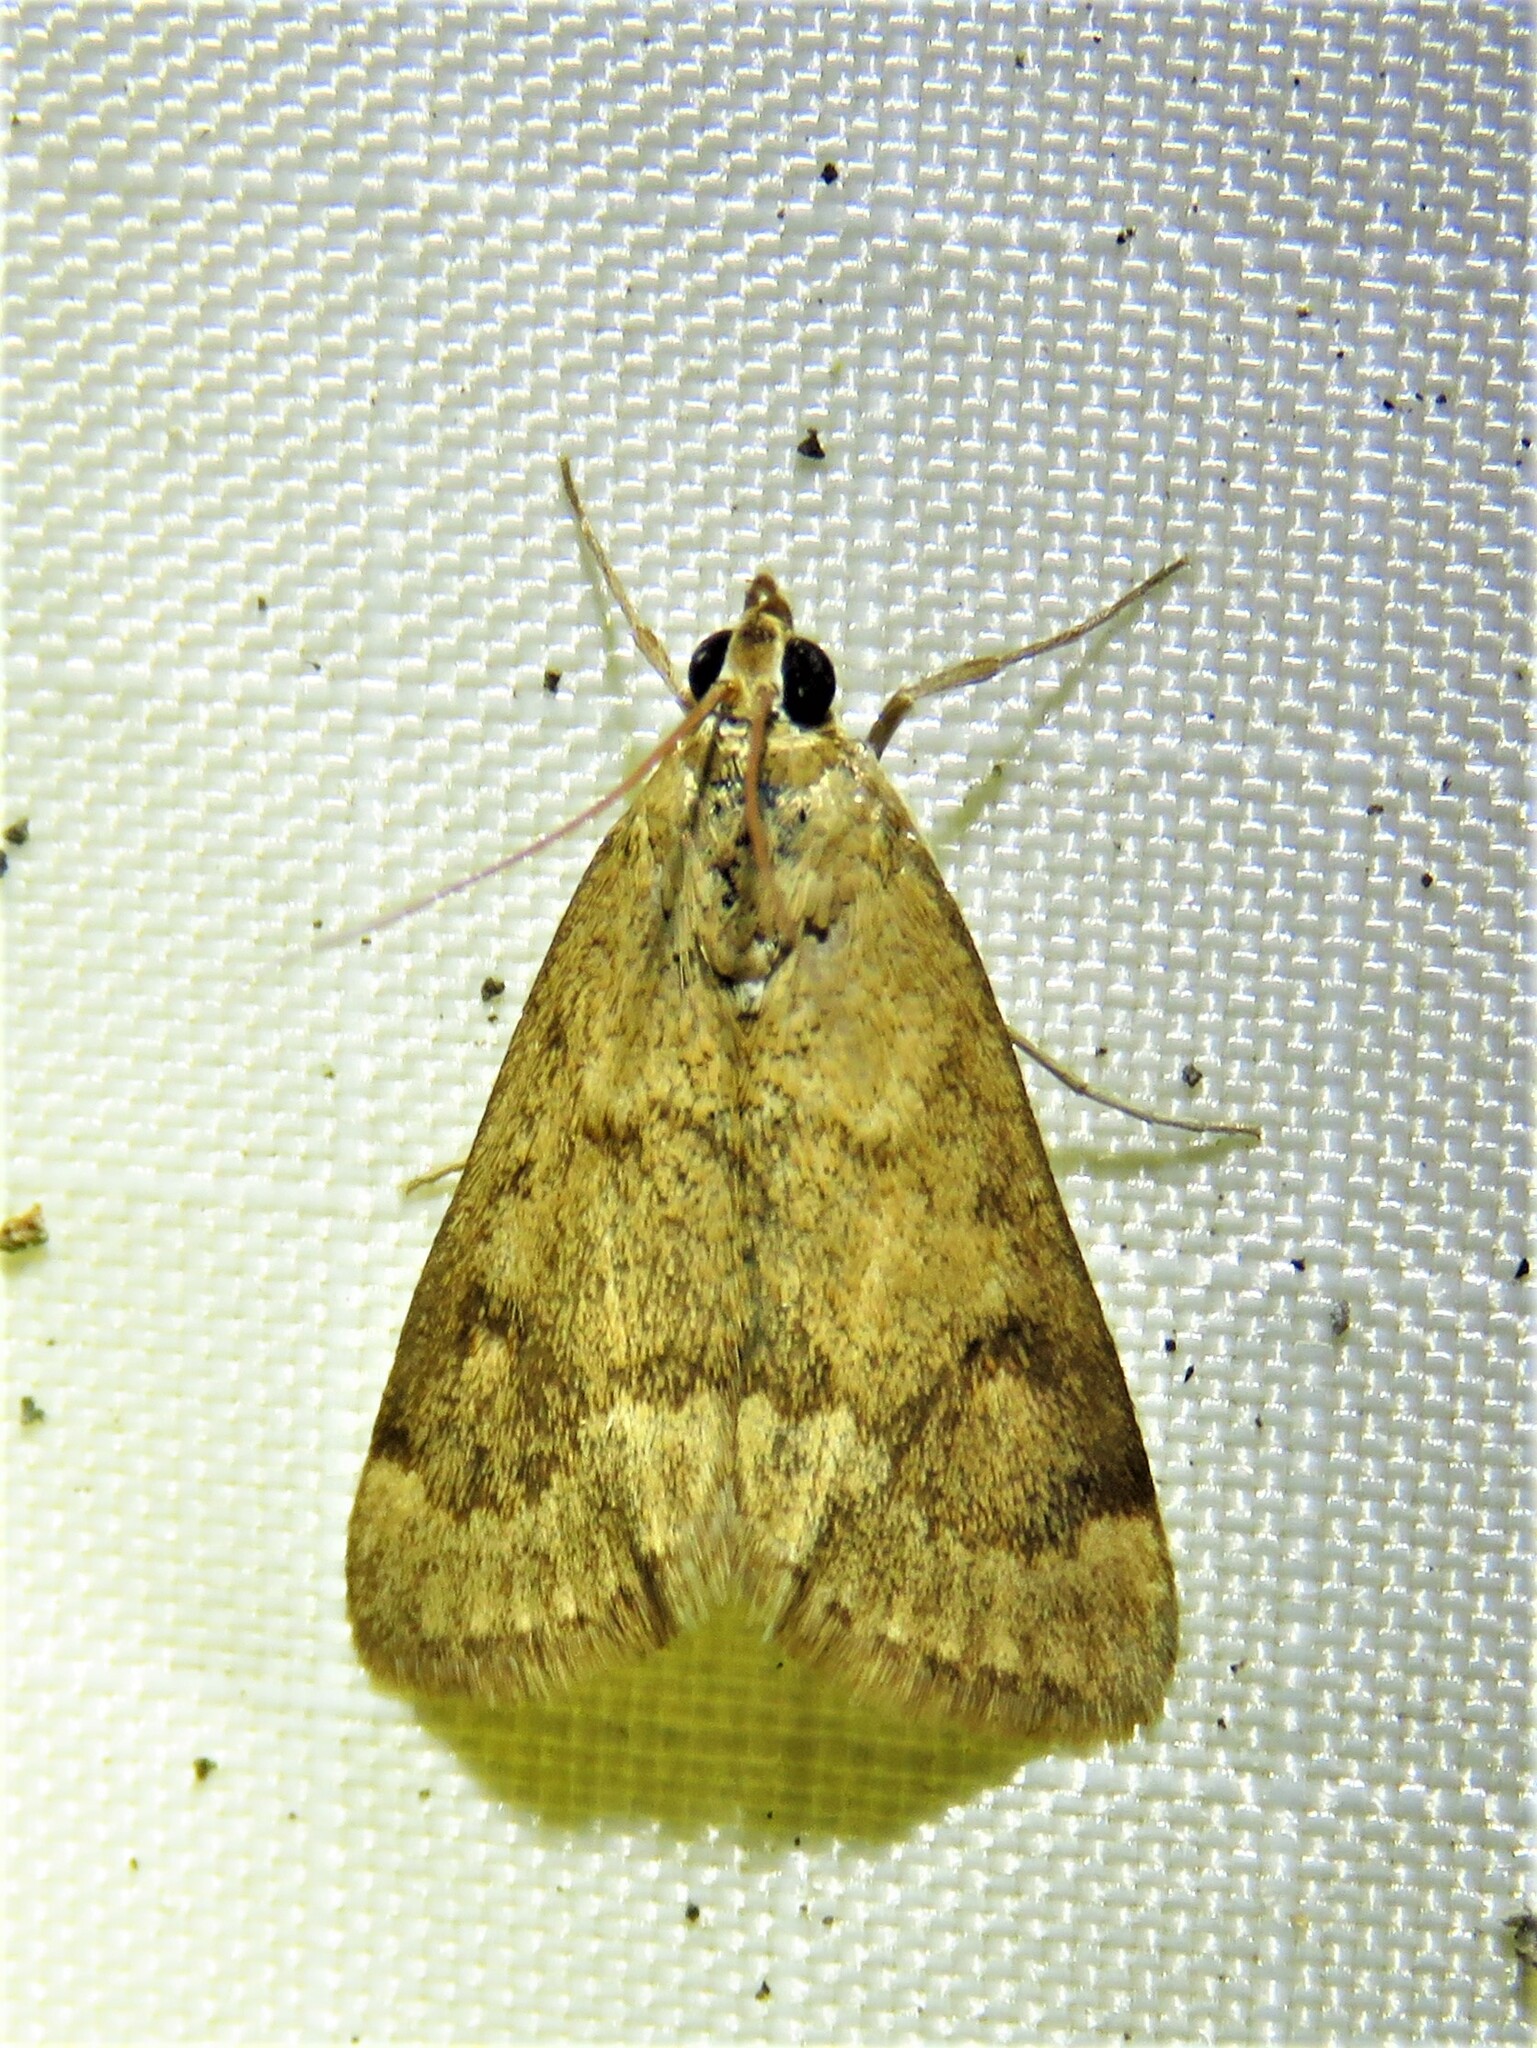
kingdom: Animalia
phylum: Arthropoda
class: Insecta
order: Lepidoptera
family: Crambidae
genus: Achyra
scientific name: Achyra rantalis
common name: Garden webworm
